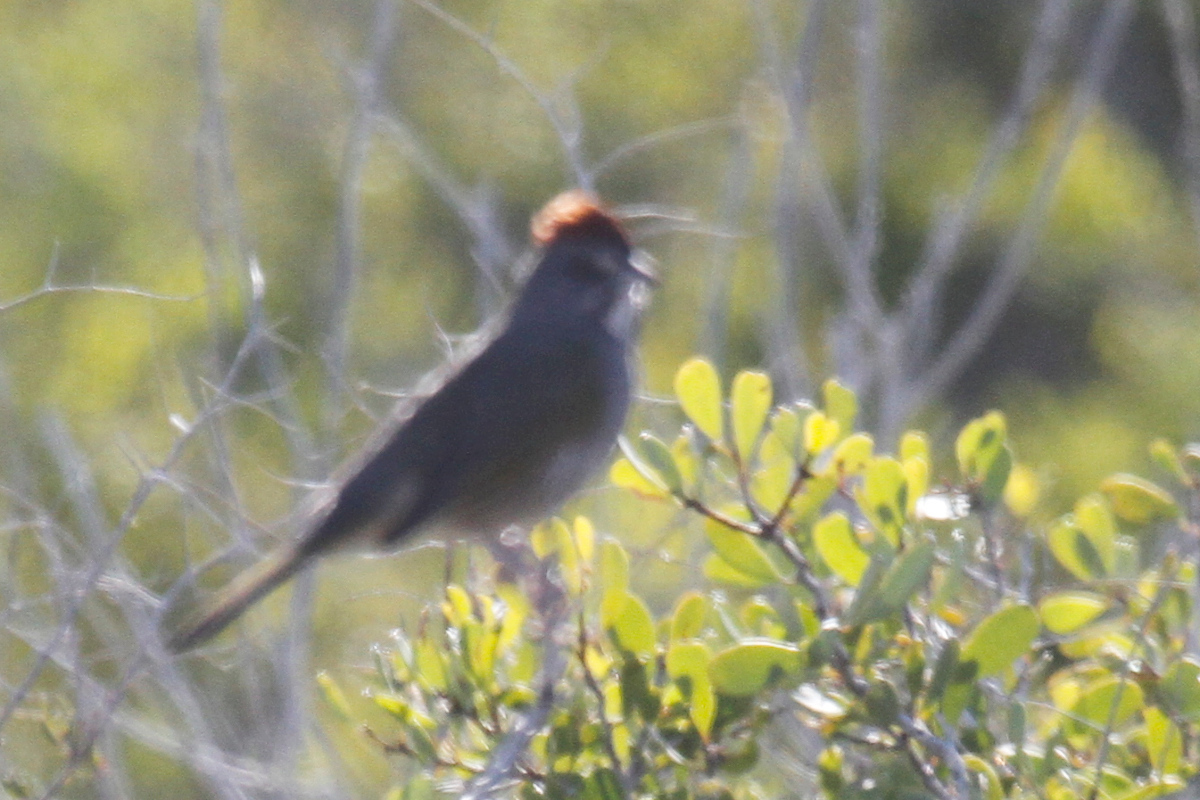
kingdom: Animalia
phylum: Chordata
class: Aves
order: Passeriformes
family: Passerellidae
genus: Pipilo
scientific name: Pipilo chlorurus
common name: Green-tailed towhee
